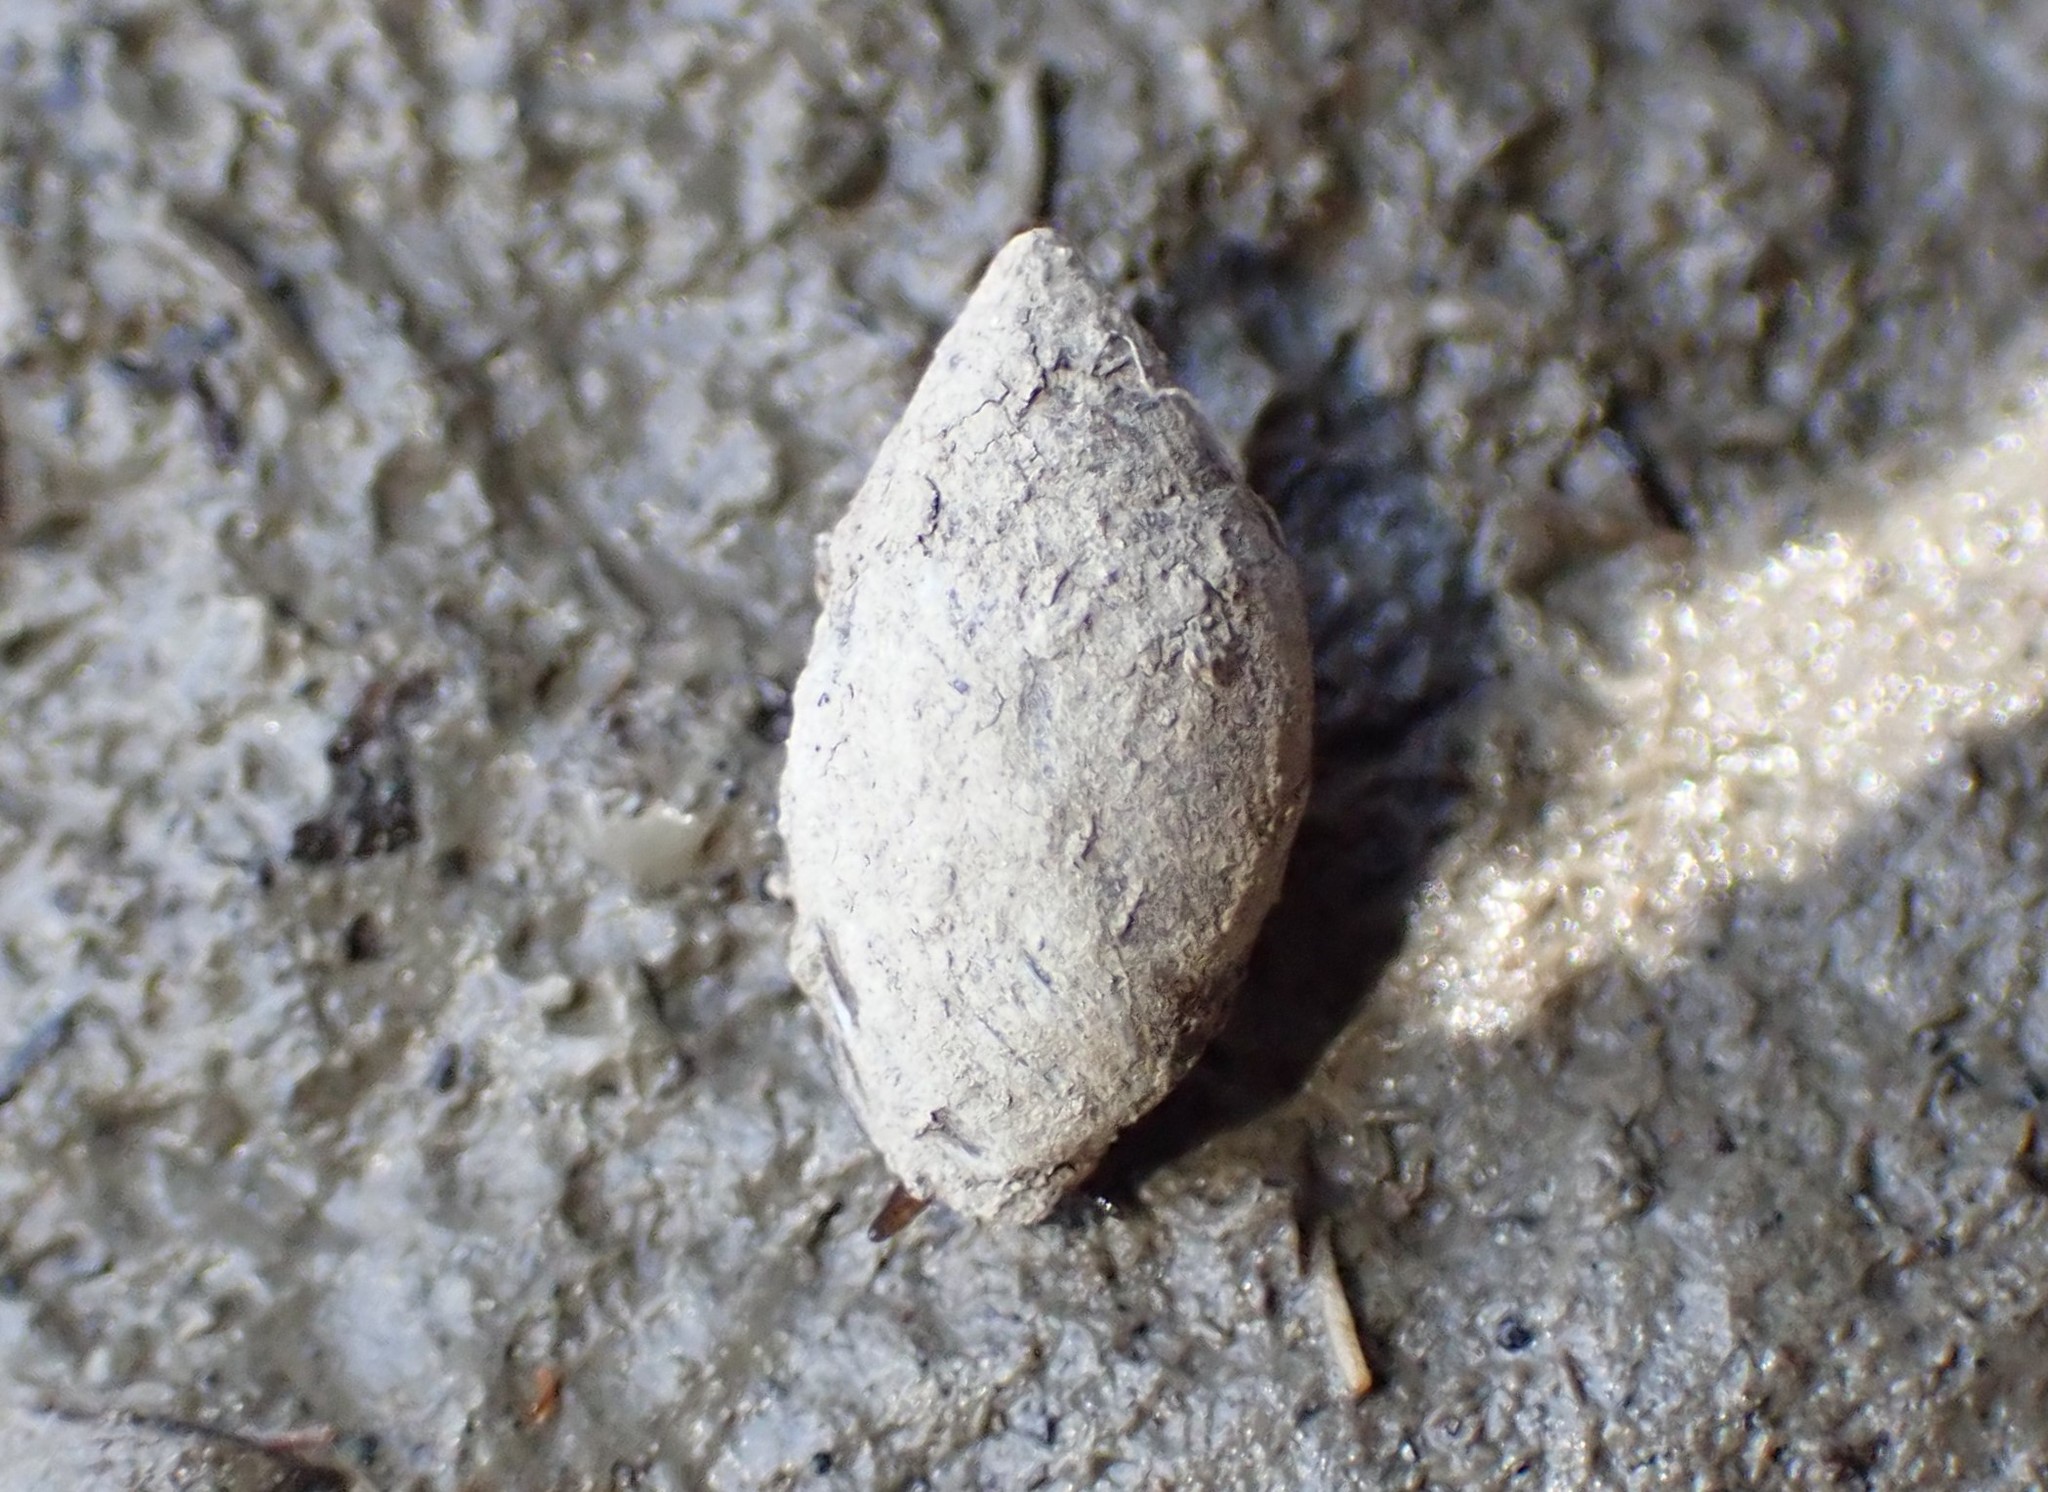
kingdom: Animalia
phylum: Mollusca
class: Gastropoda
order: Ellobiida
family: Ellobiidae
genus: Pleuroloba
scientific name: Pleuroloba costellaris
